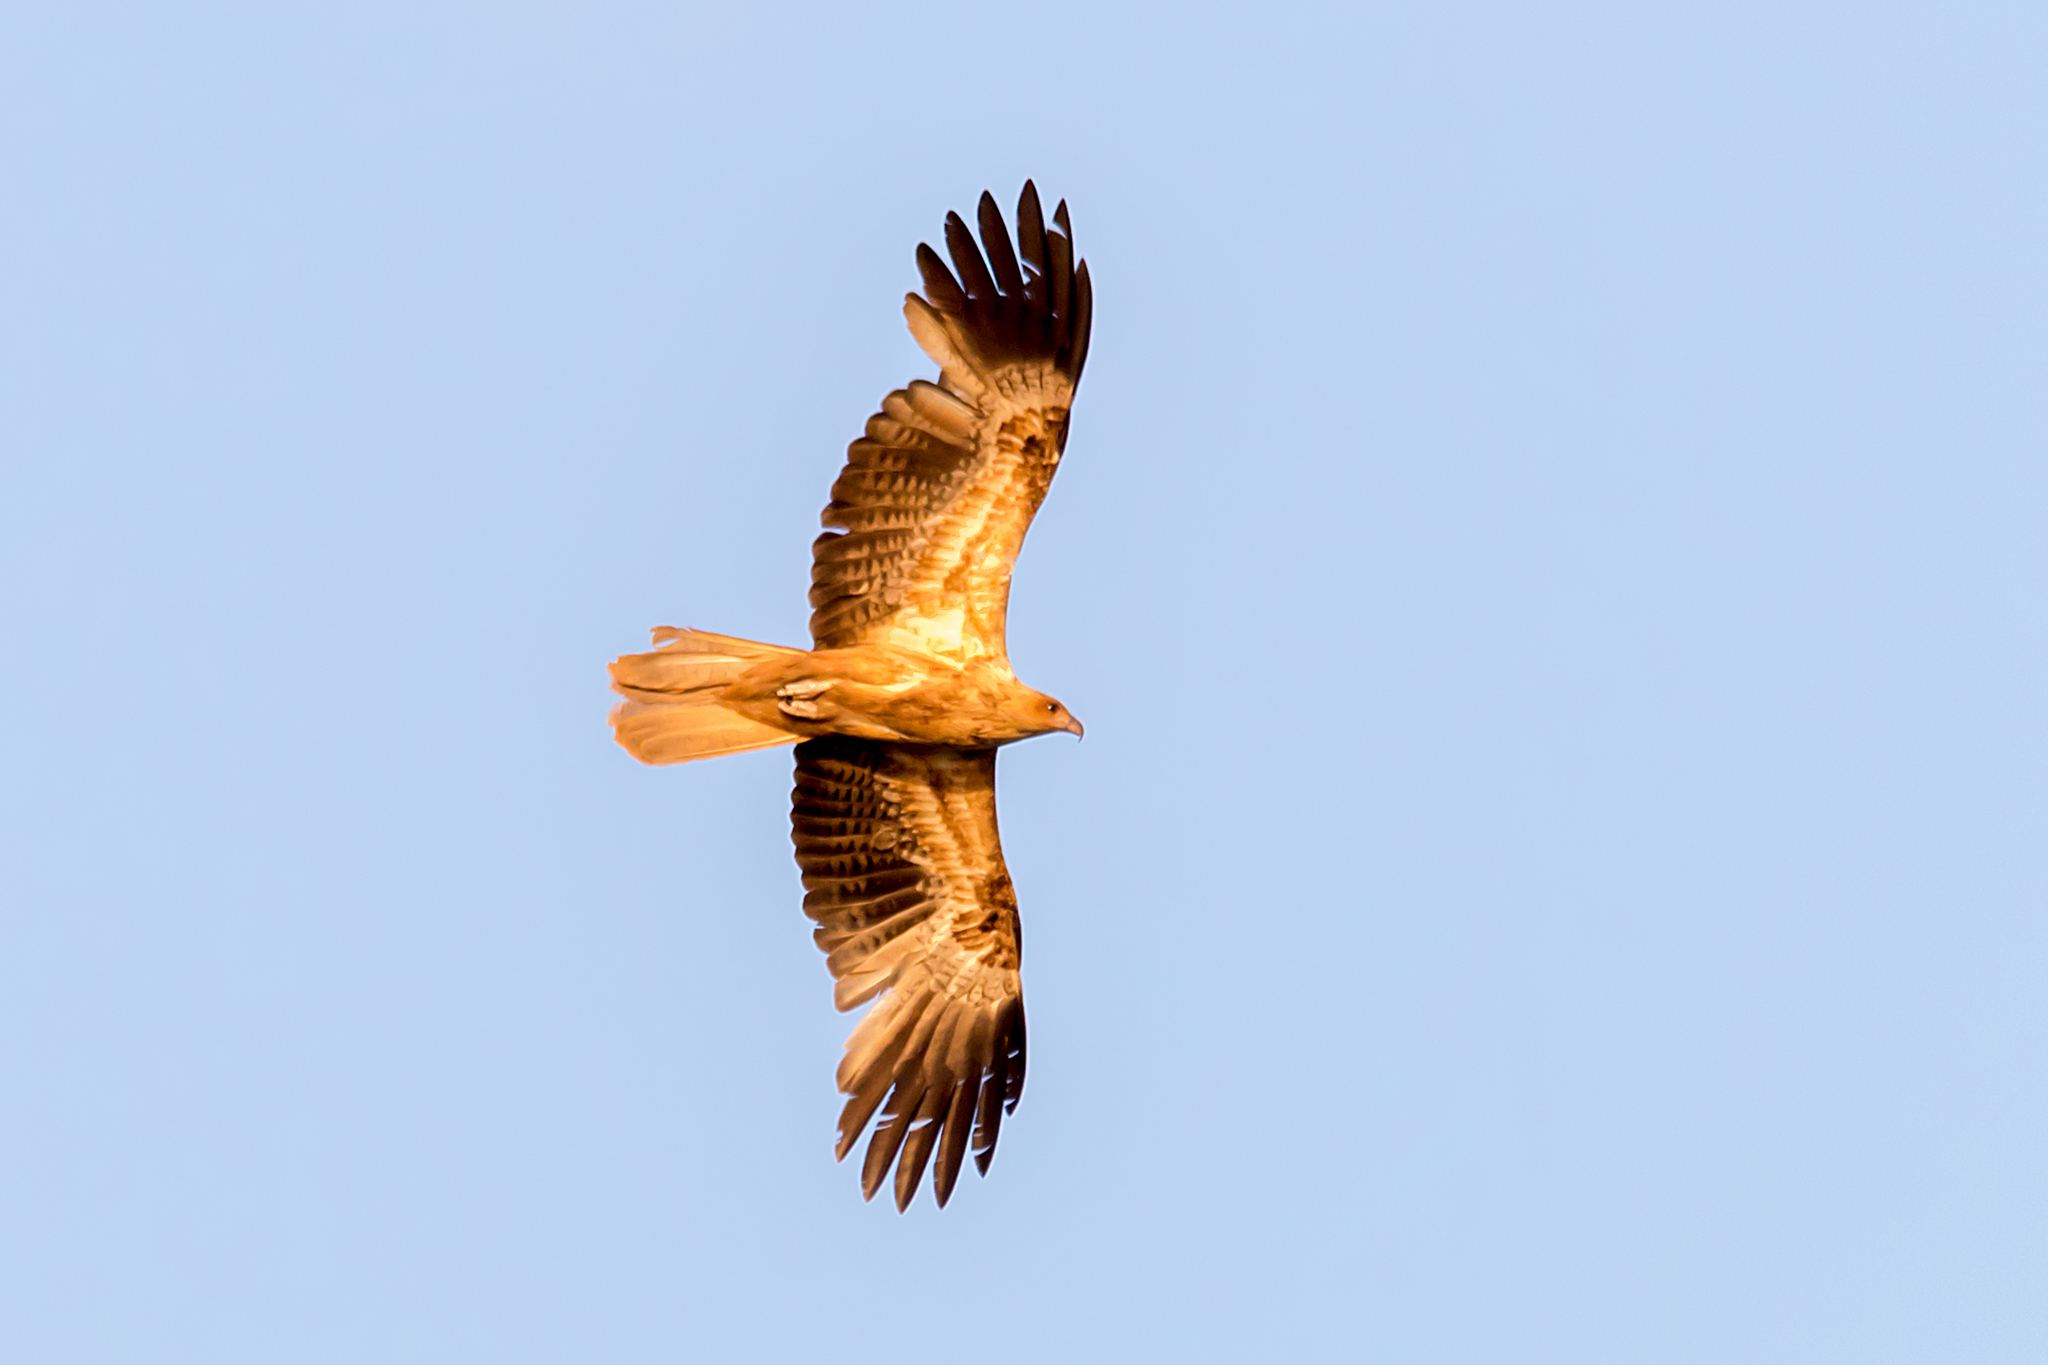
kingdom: Animalia
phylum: Chordata
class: Aves
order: Accipitriformes
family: Accipitridae
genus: Haliastur
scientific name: Haliastur sphenurus
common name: Whistling kite
